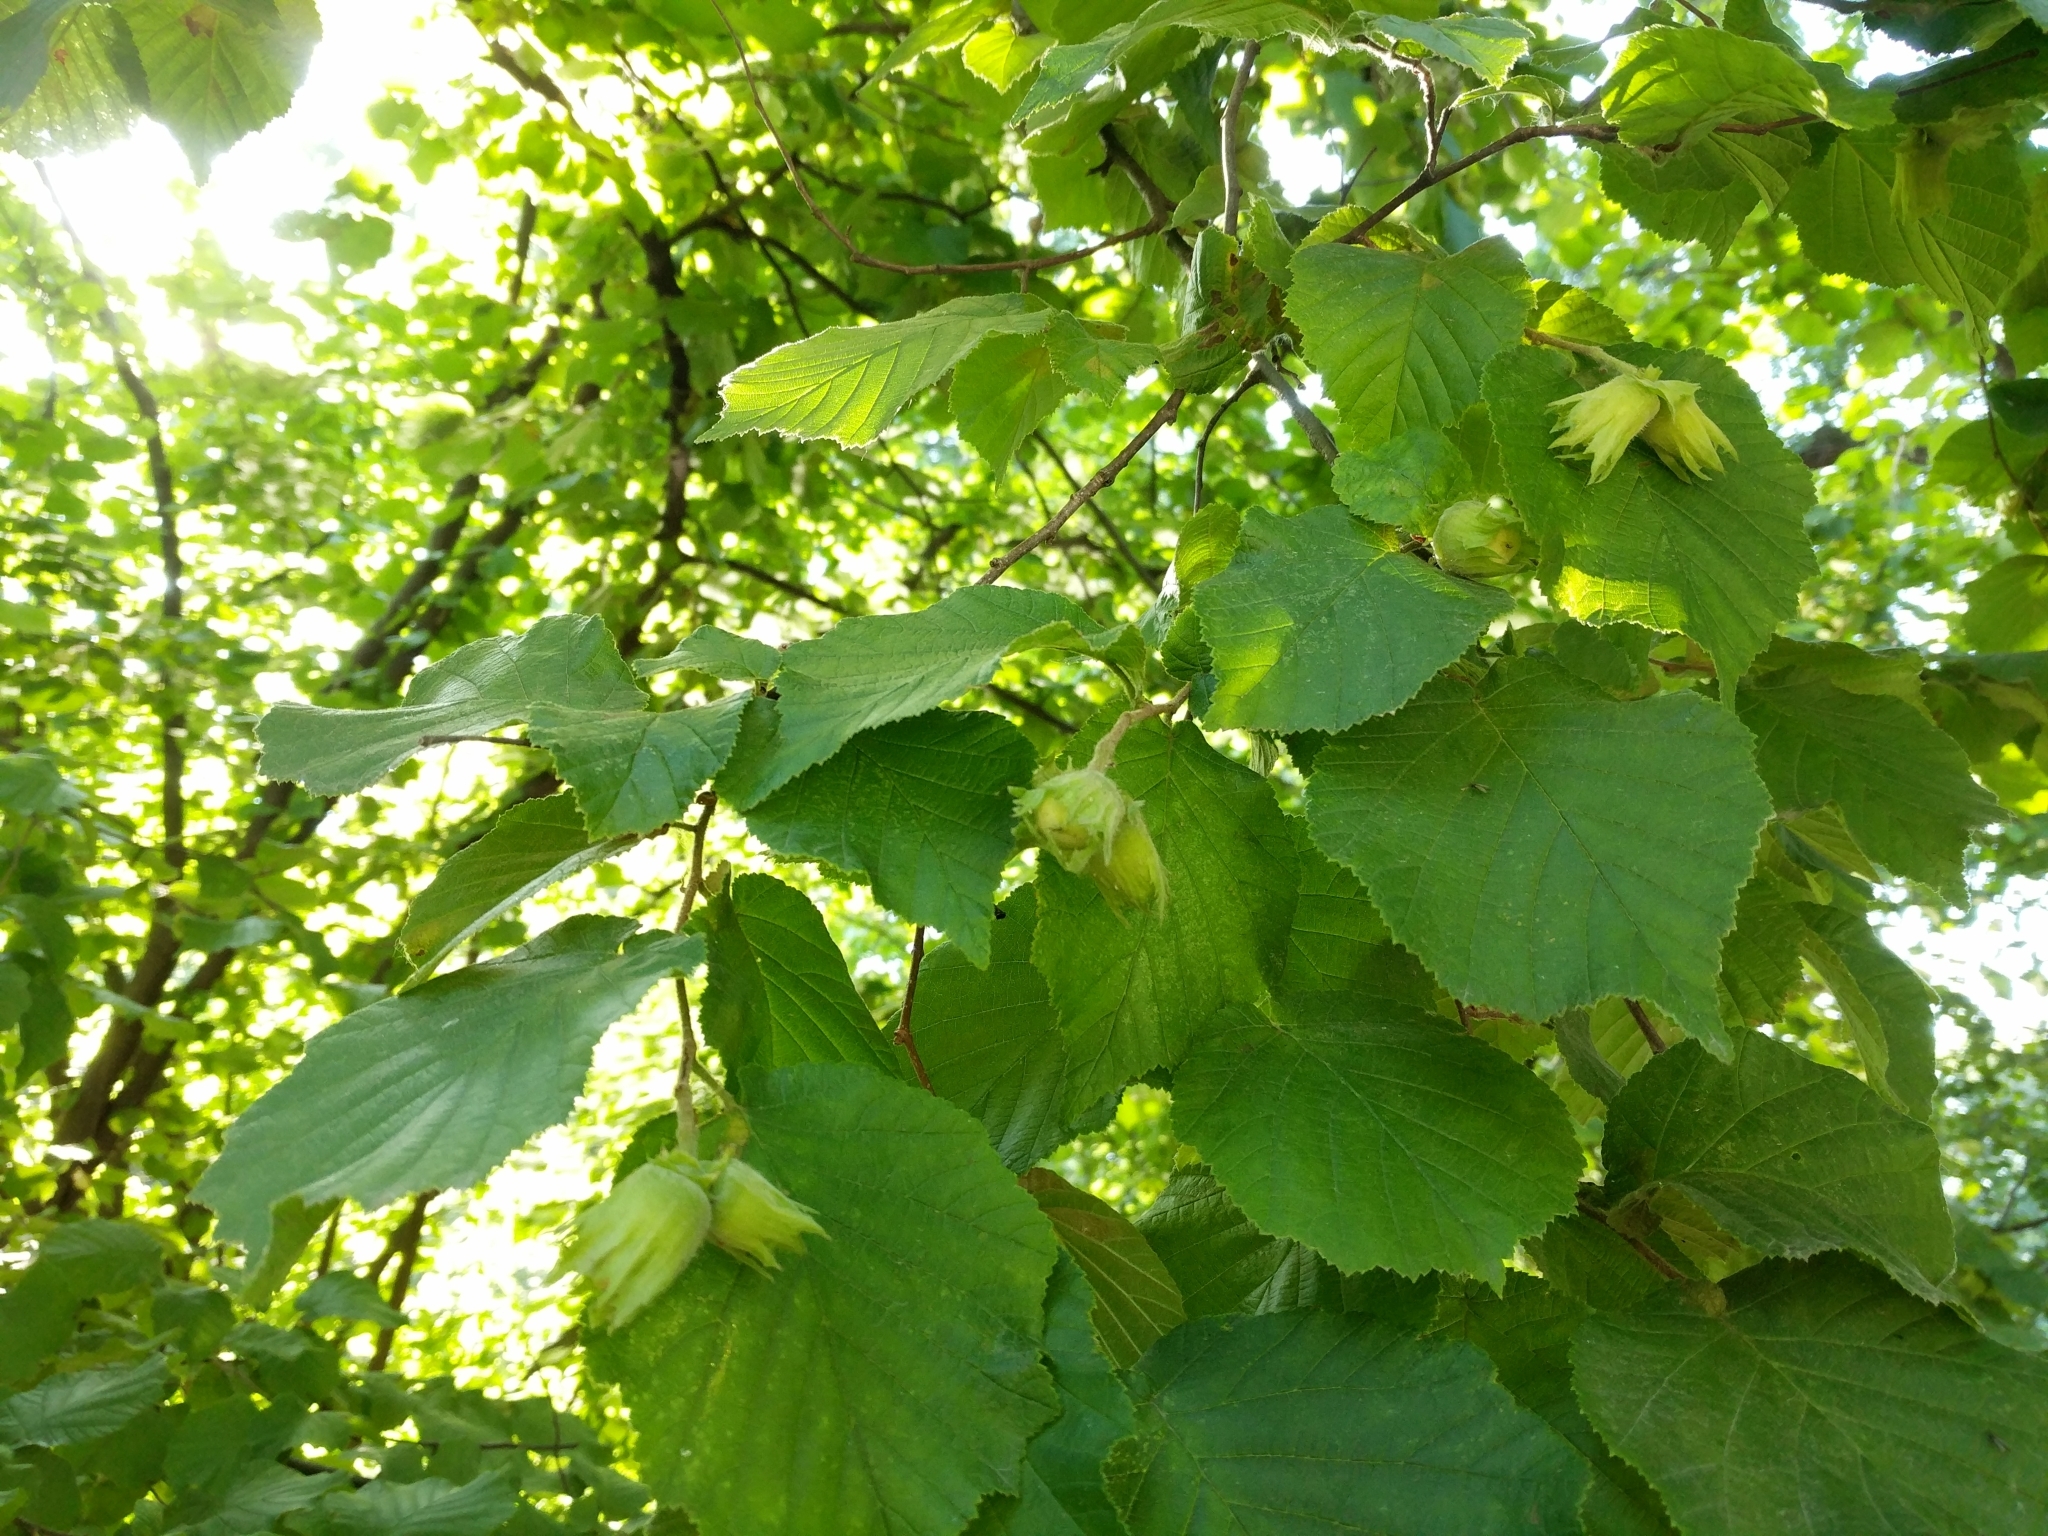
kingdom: Plantae
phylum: Tracheophyta
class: Magnoliopsida
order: Fagales
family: Betulaceae
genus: Corylus
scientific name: Corylus avellana
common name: European hazel
